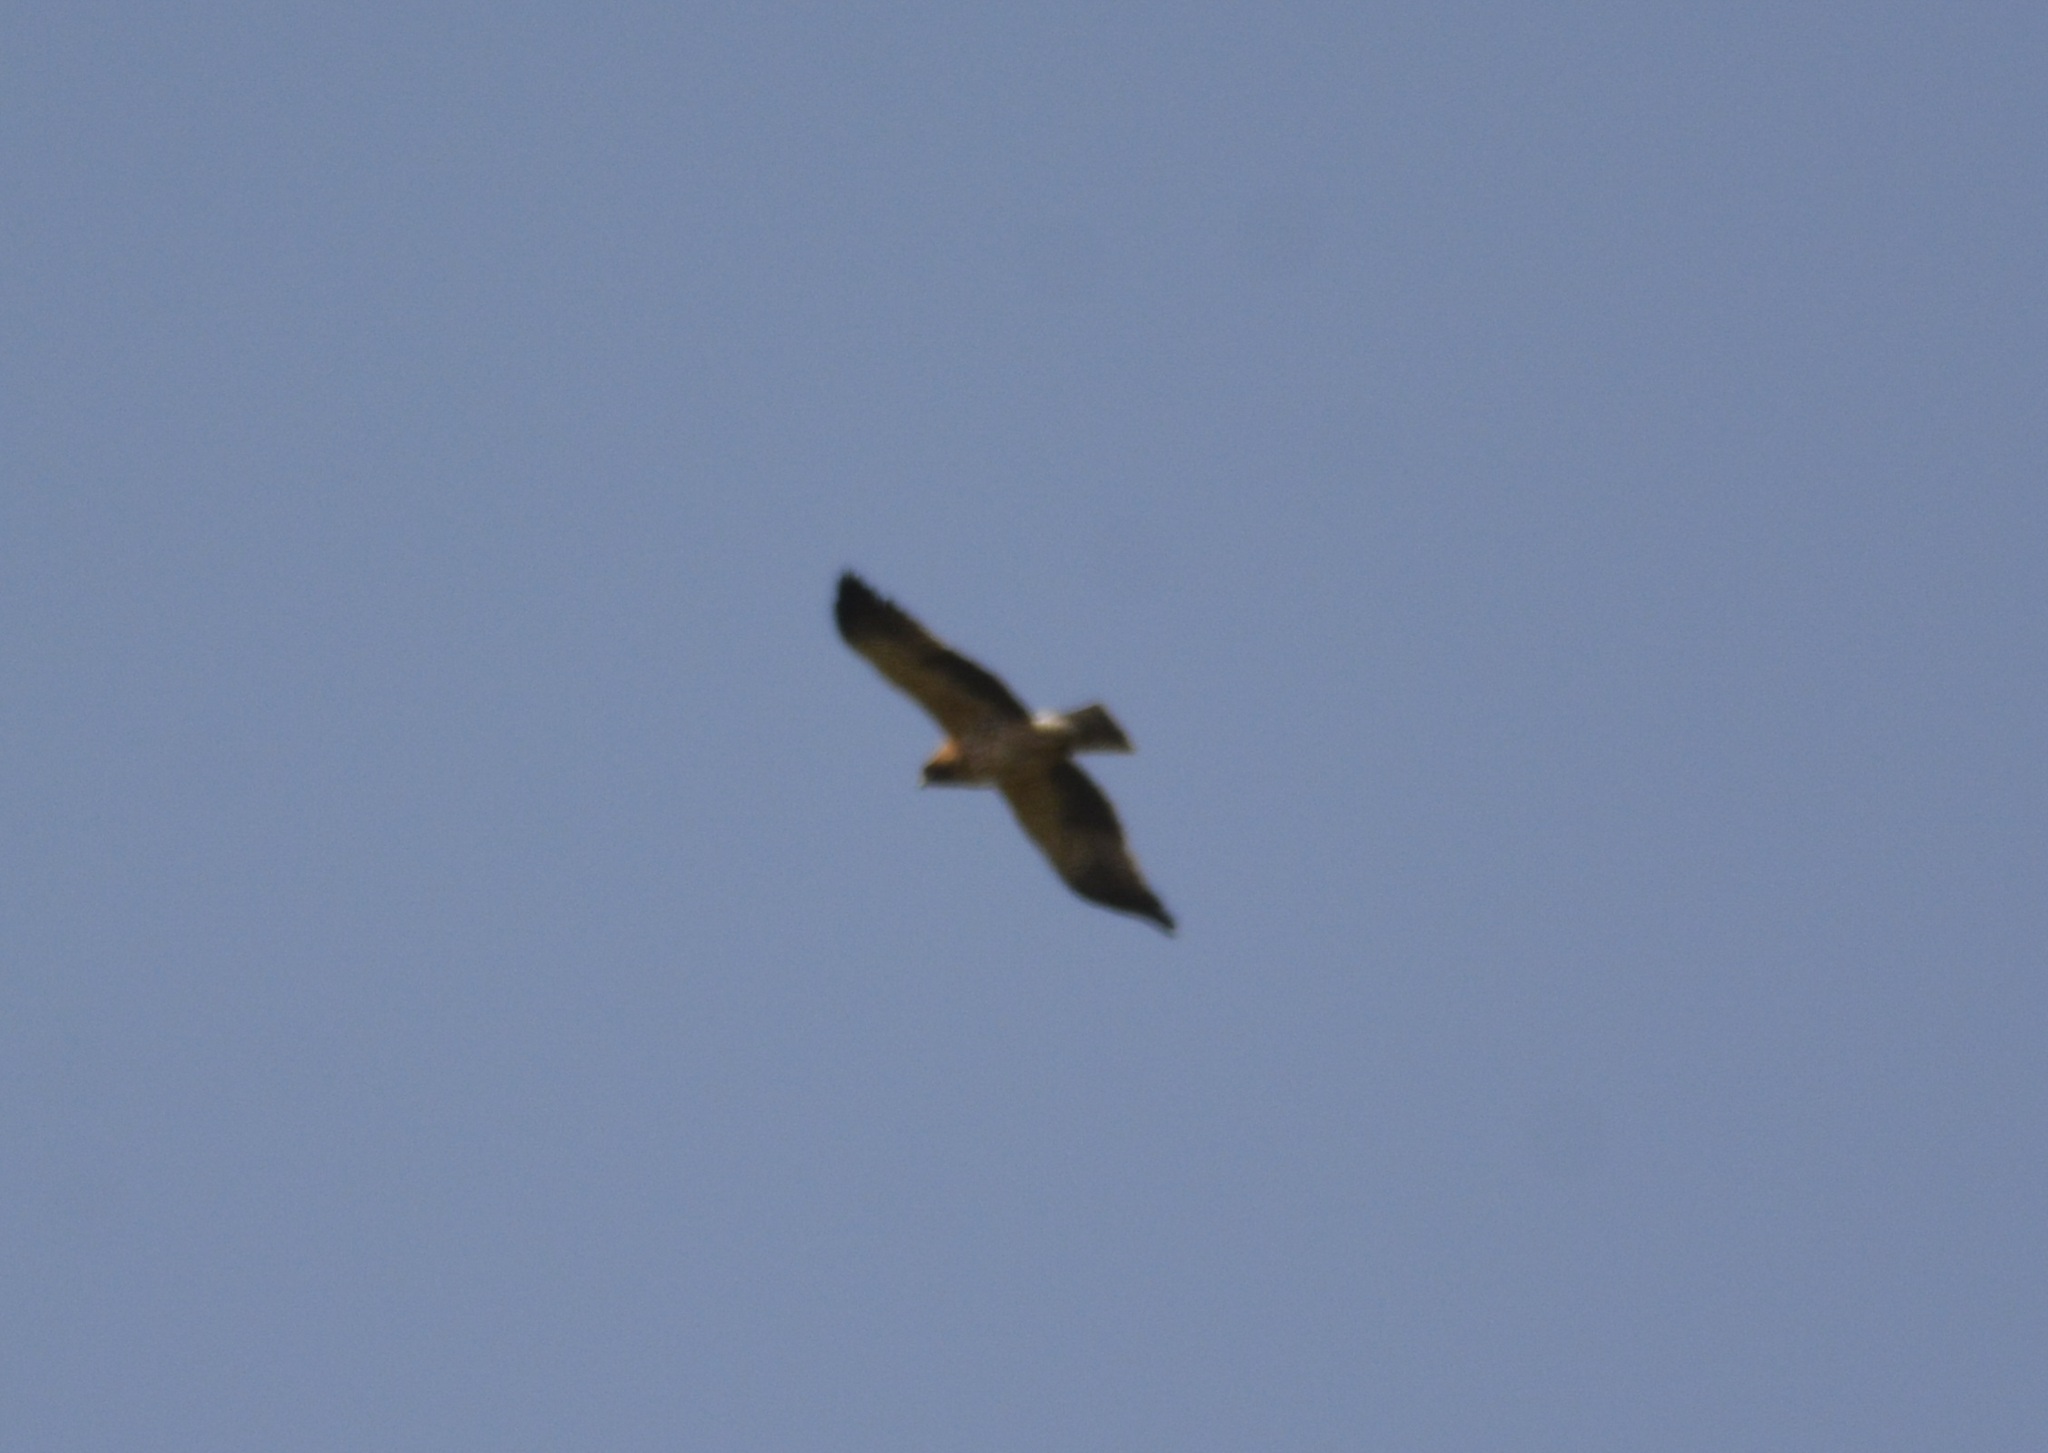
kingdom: Animalia
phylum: Chordata
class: Aves
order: Accipitriformes
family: Accipitridae
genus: Hieraaetus
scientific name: Hieraaetus pennatus
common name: Booted eagle
